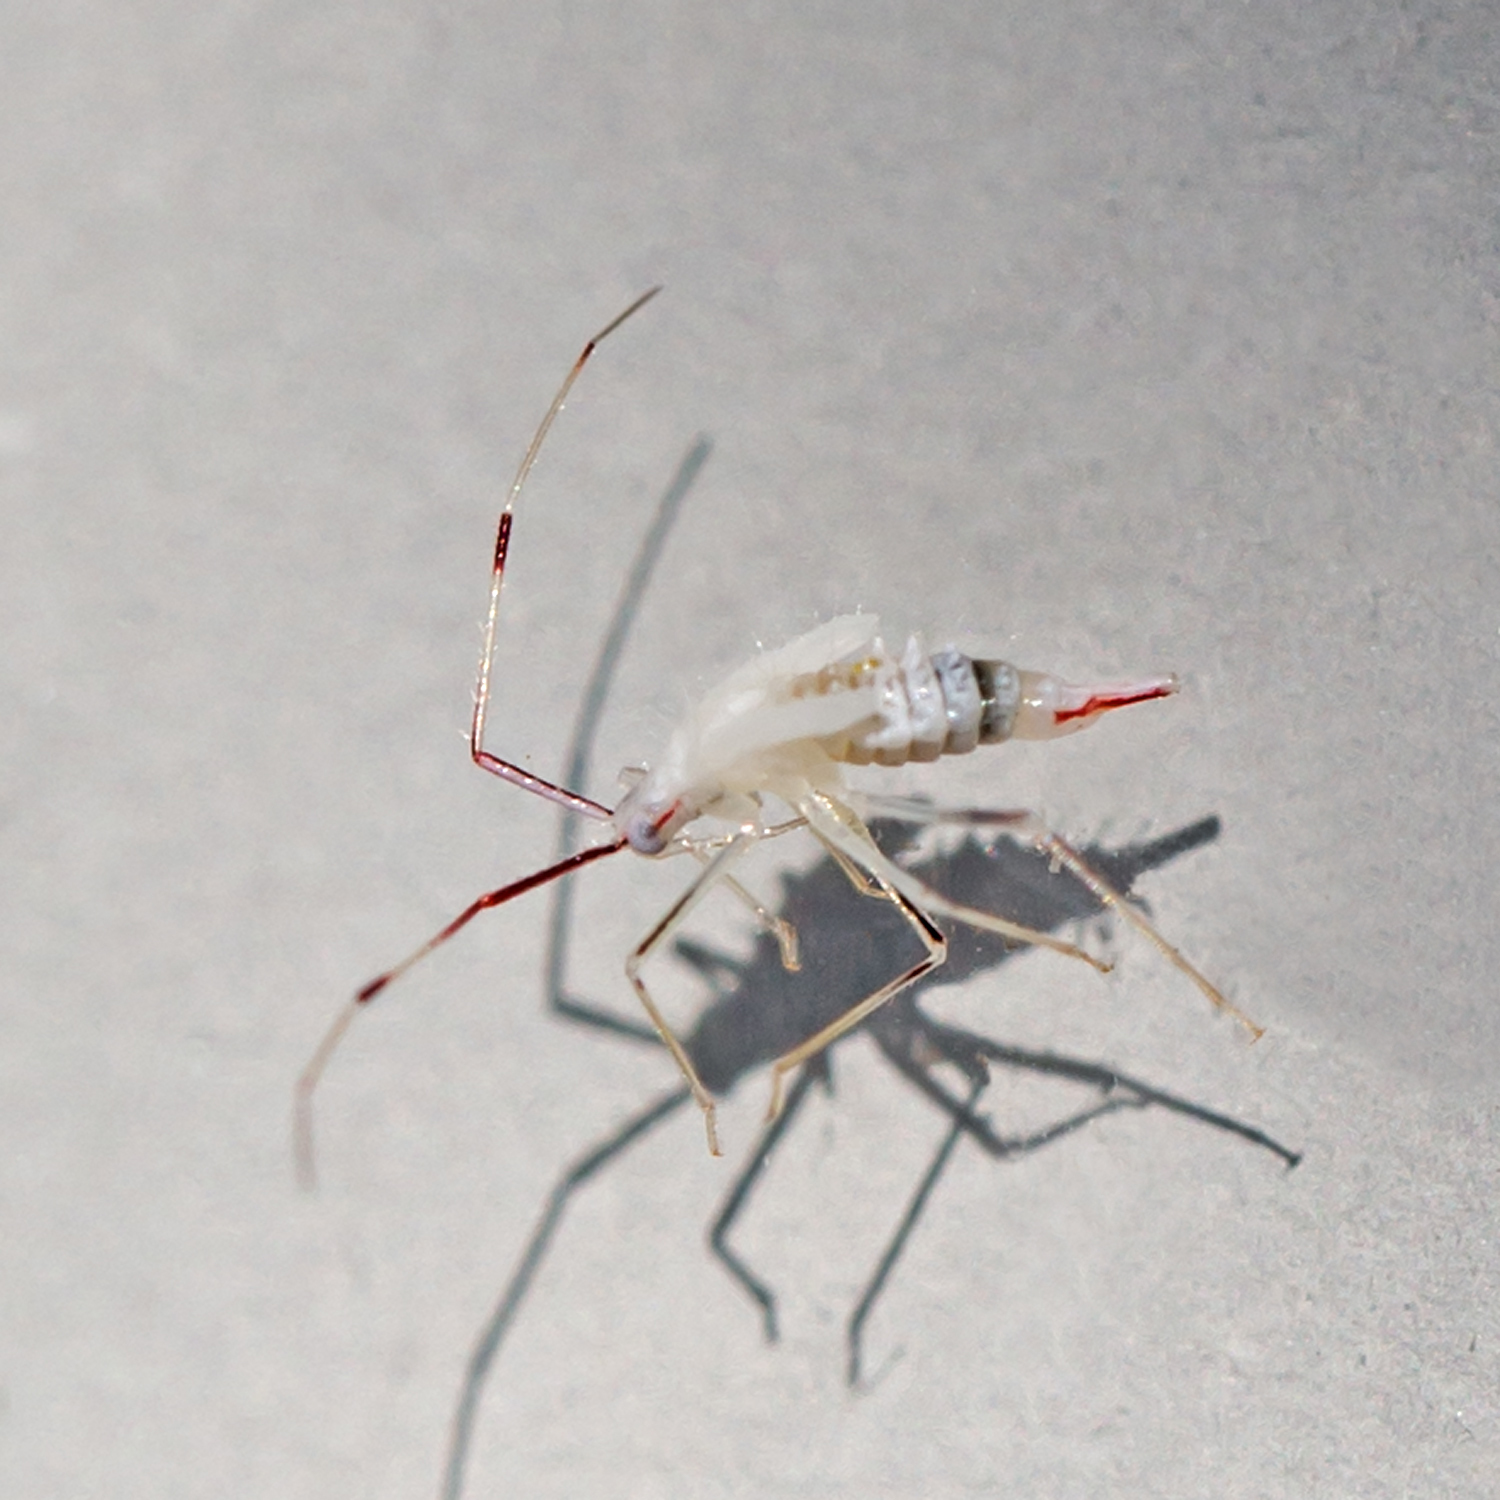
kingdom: Animalia
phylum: Arthropoda
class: Insecta
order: Hemiptera
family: Miridae
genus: Hyaliodes
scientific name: Hyaliodes harti
